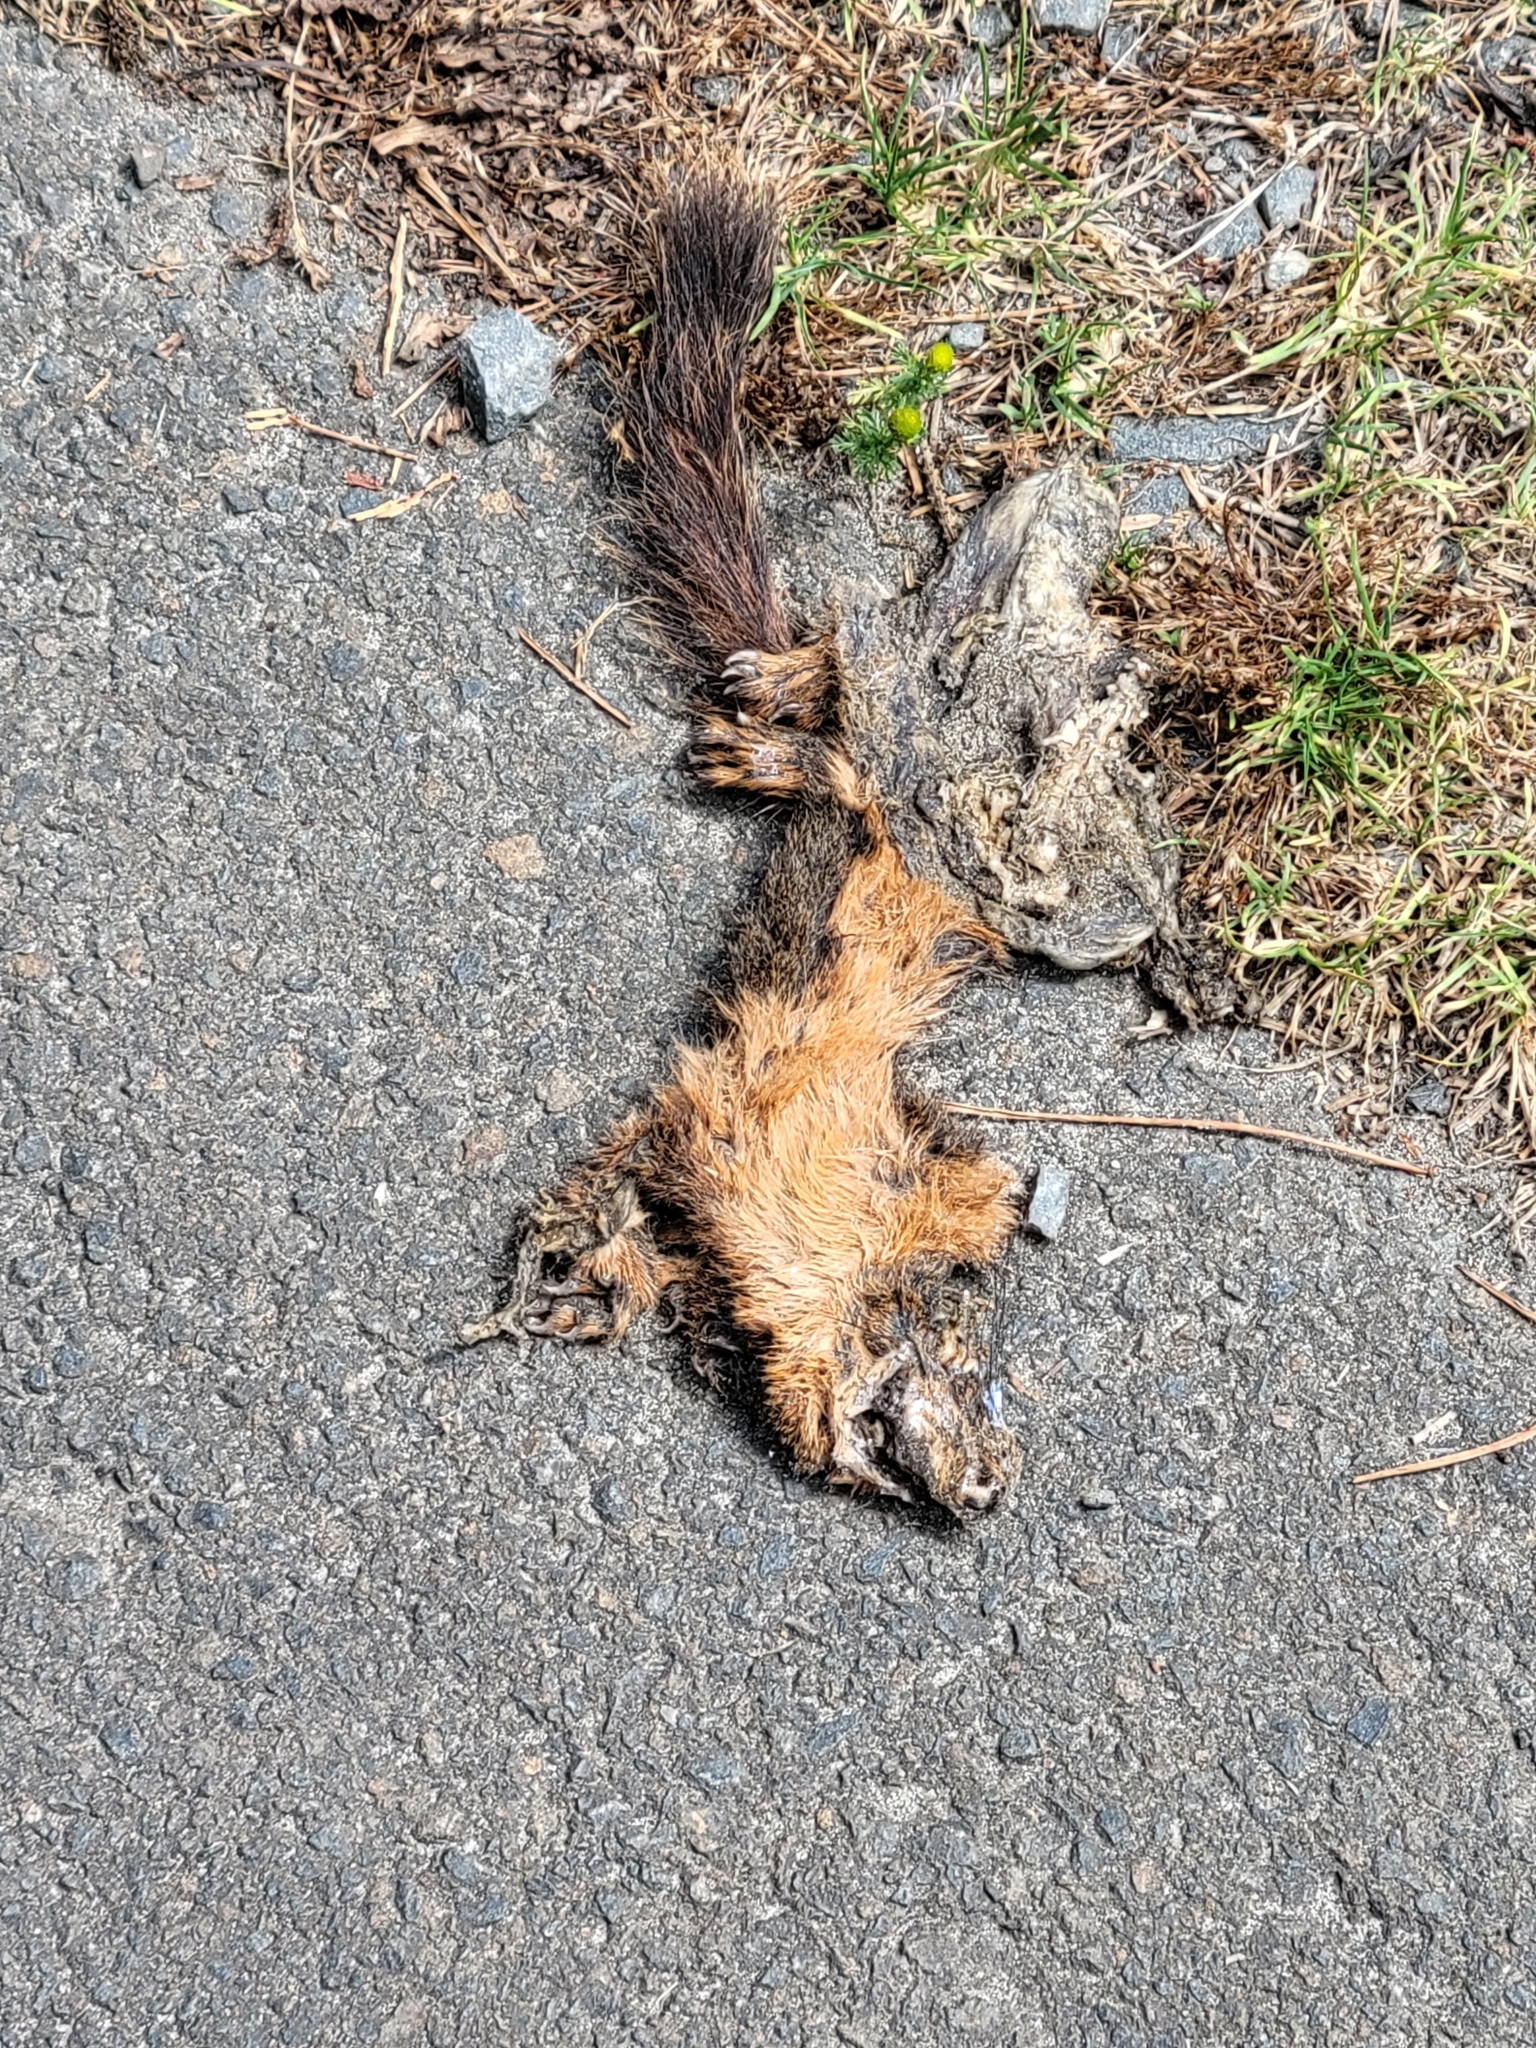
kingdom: Animalia
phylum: Chordata
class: Mammalia
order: Rodentia
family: Sciuridae
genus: Tamiasciurus
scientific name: Tamiasciurus douglasii
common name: Douglas's squirrel
